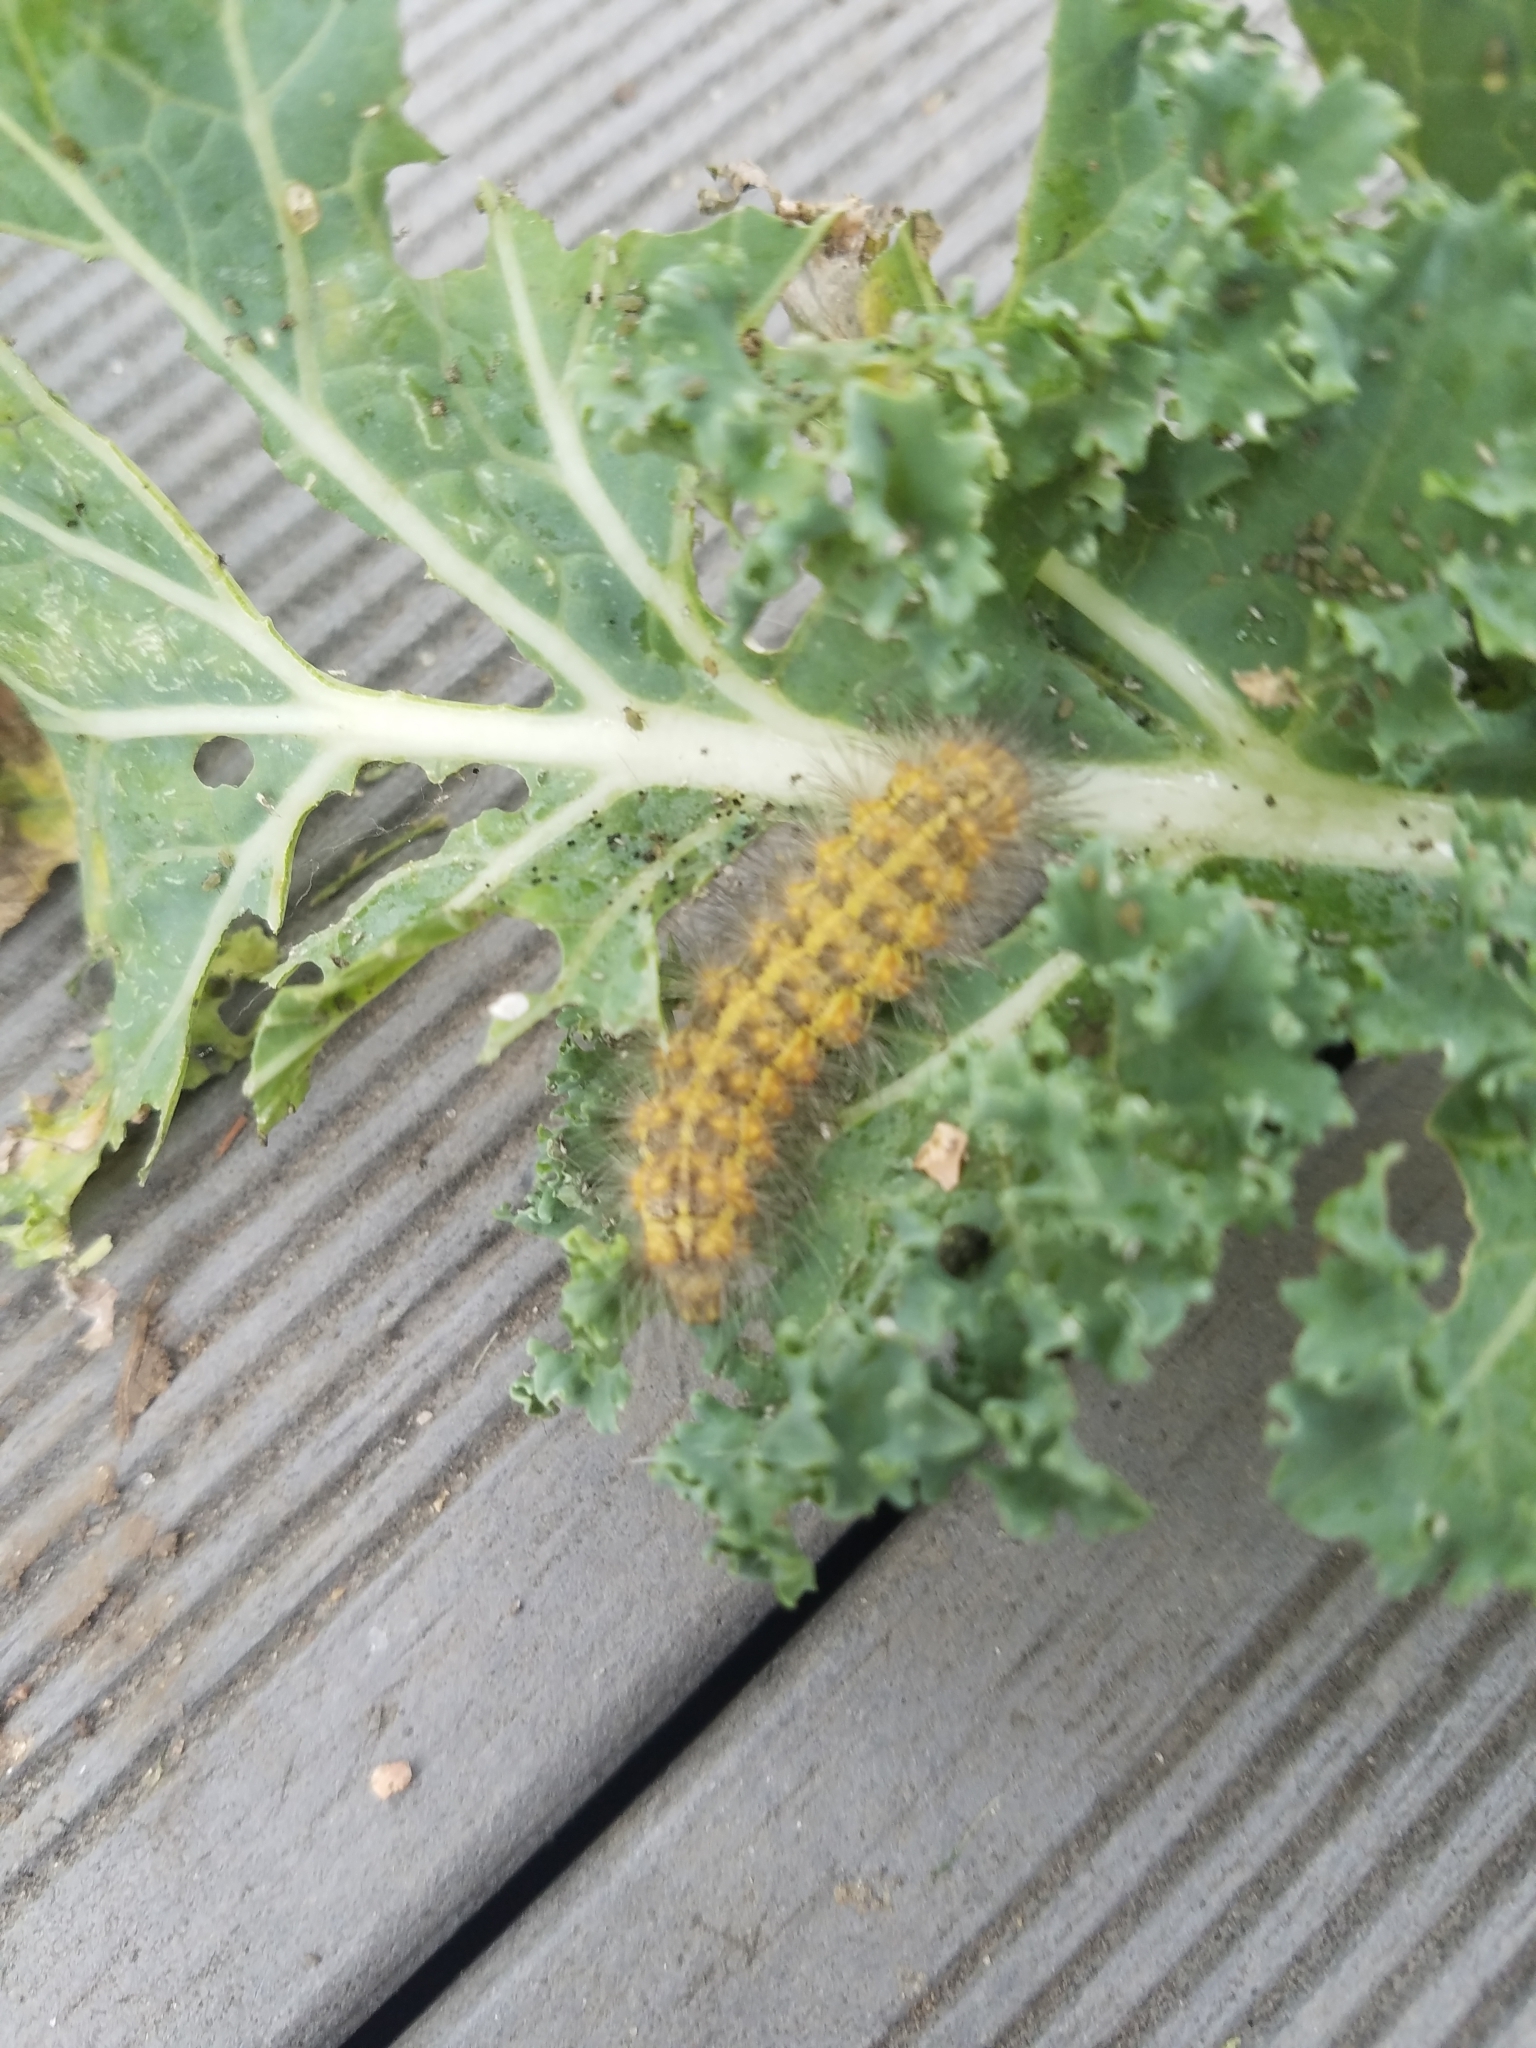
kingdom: Animalia
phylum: Arthropoda
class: Insecta
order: Lepidoptera
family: Erebidae
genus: Estigmene
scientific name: Estigmene acrea
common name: Salt marsh moth
